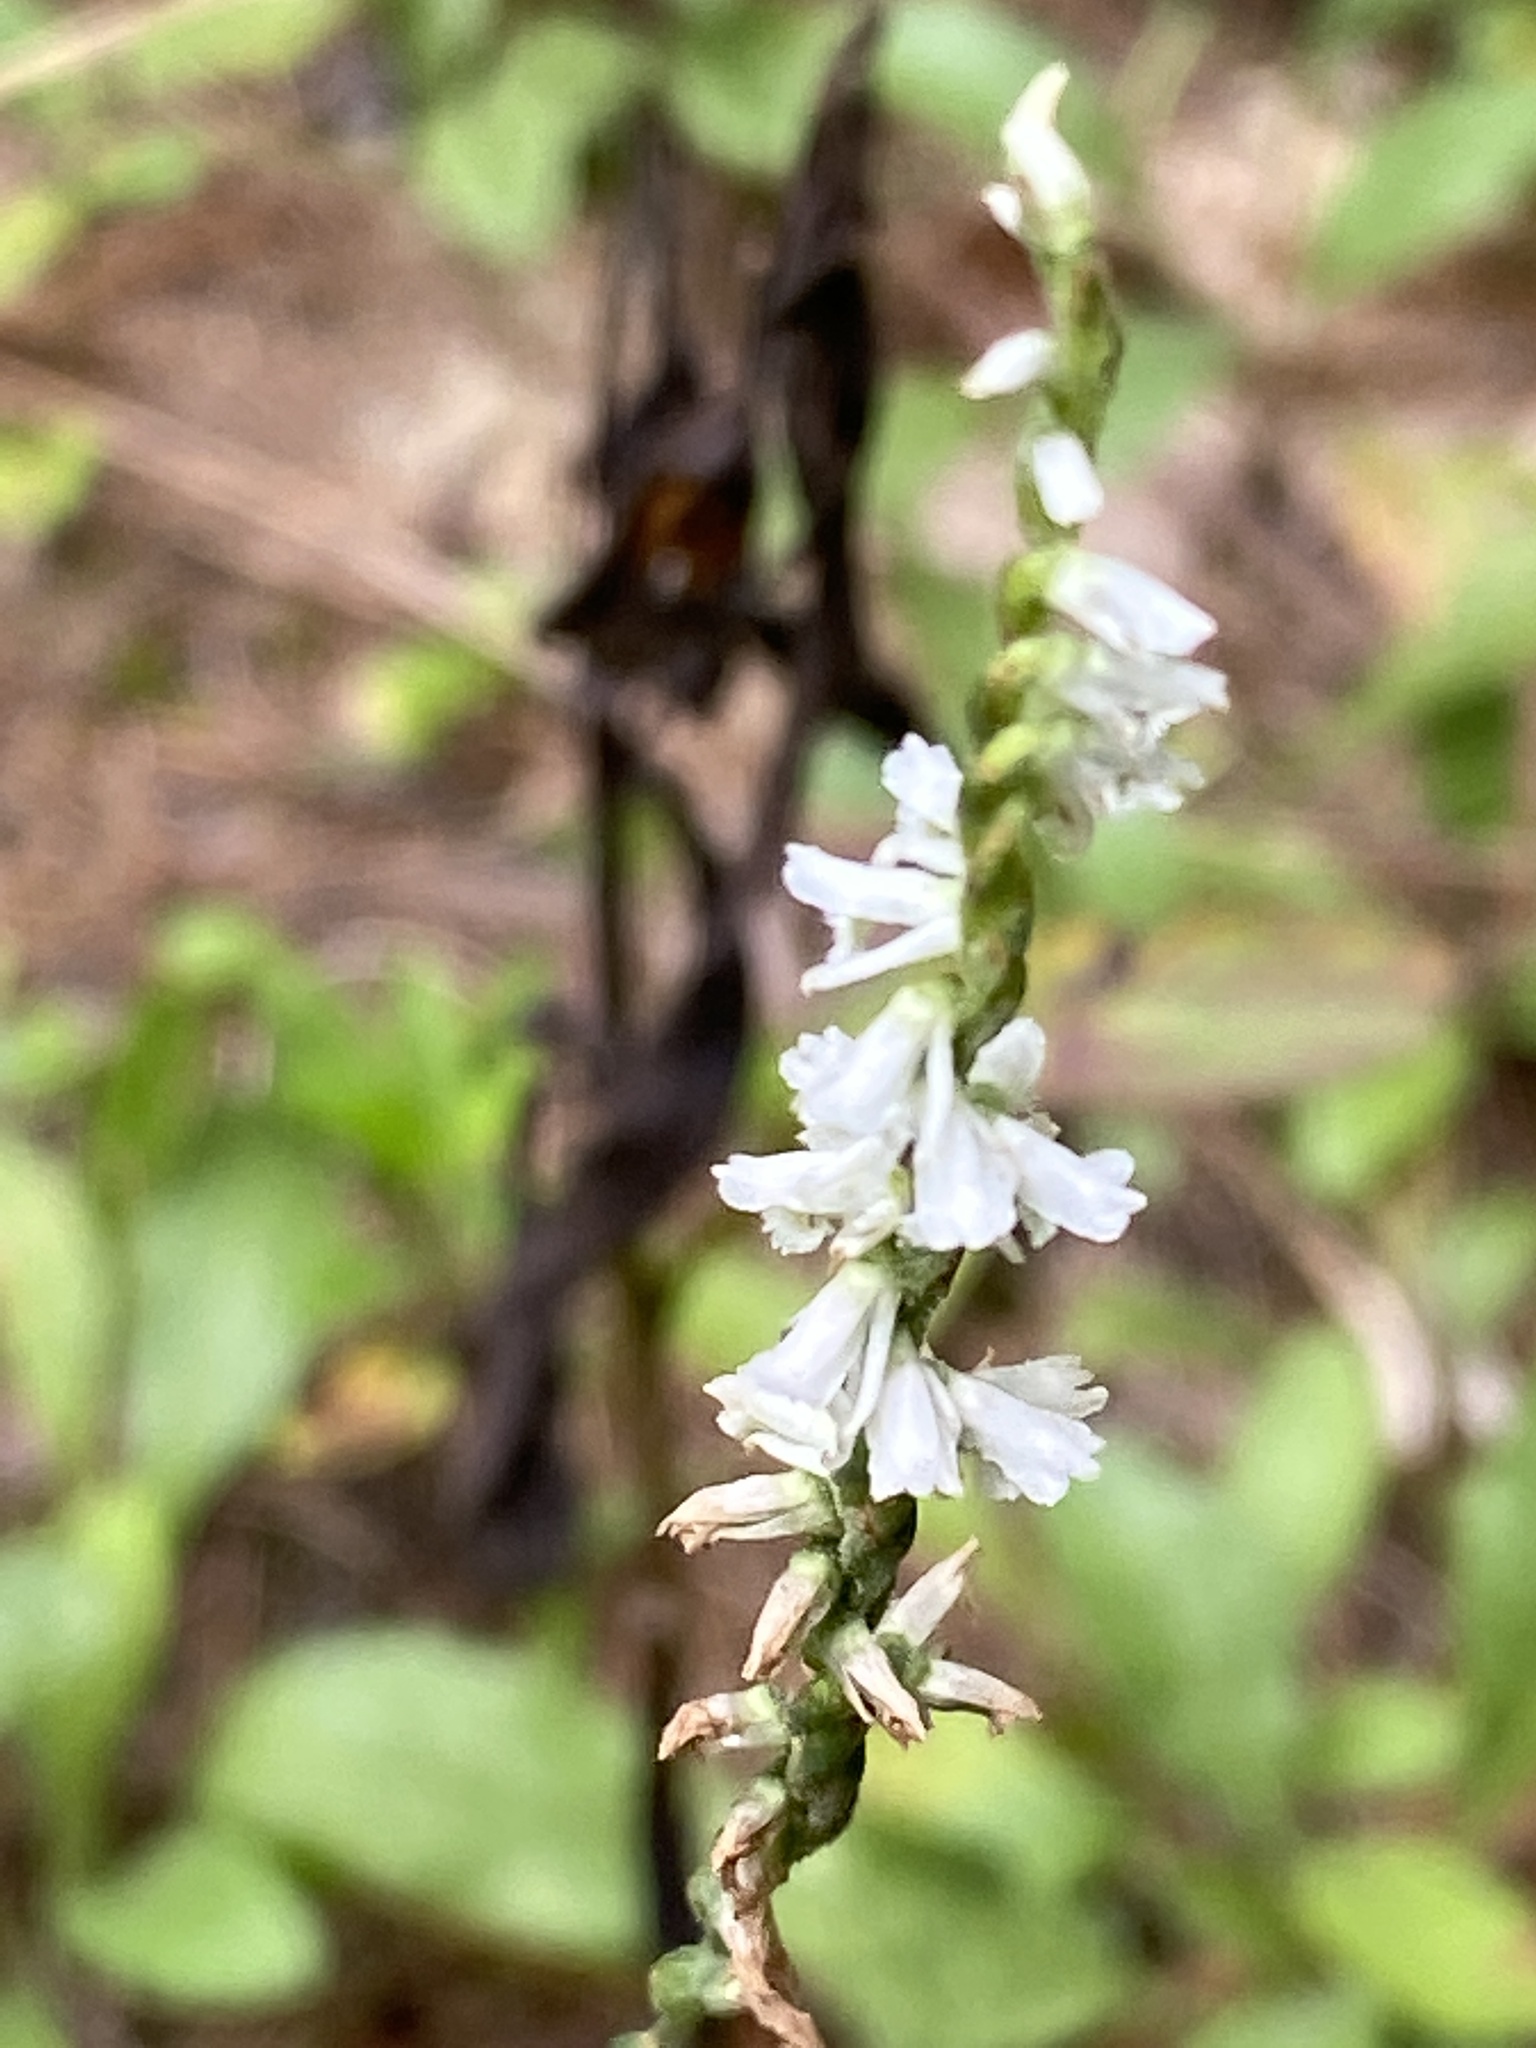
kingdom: Plantae
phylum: Tracheophyta
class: Liliopsida
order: Asparagales
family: Orchidaceae
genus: Spiranthes
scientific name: Spiranthes lacera
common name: Northern slender ladies'-tresses
